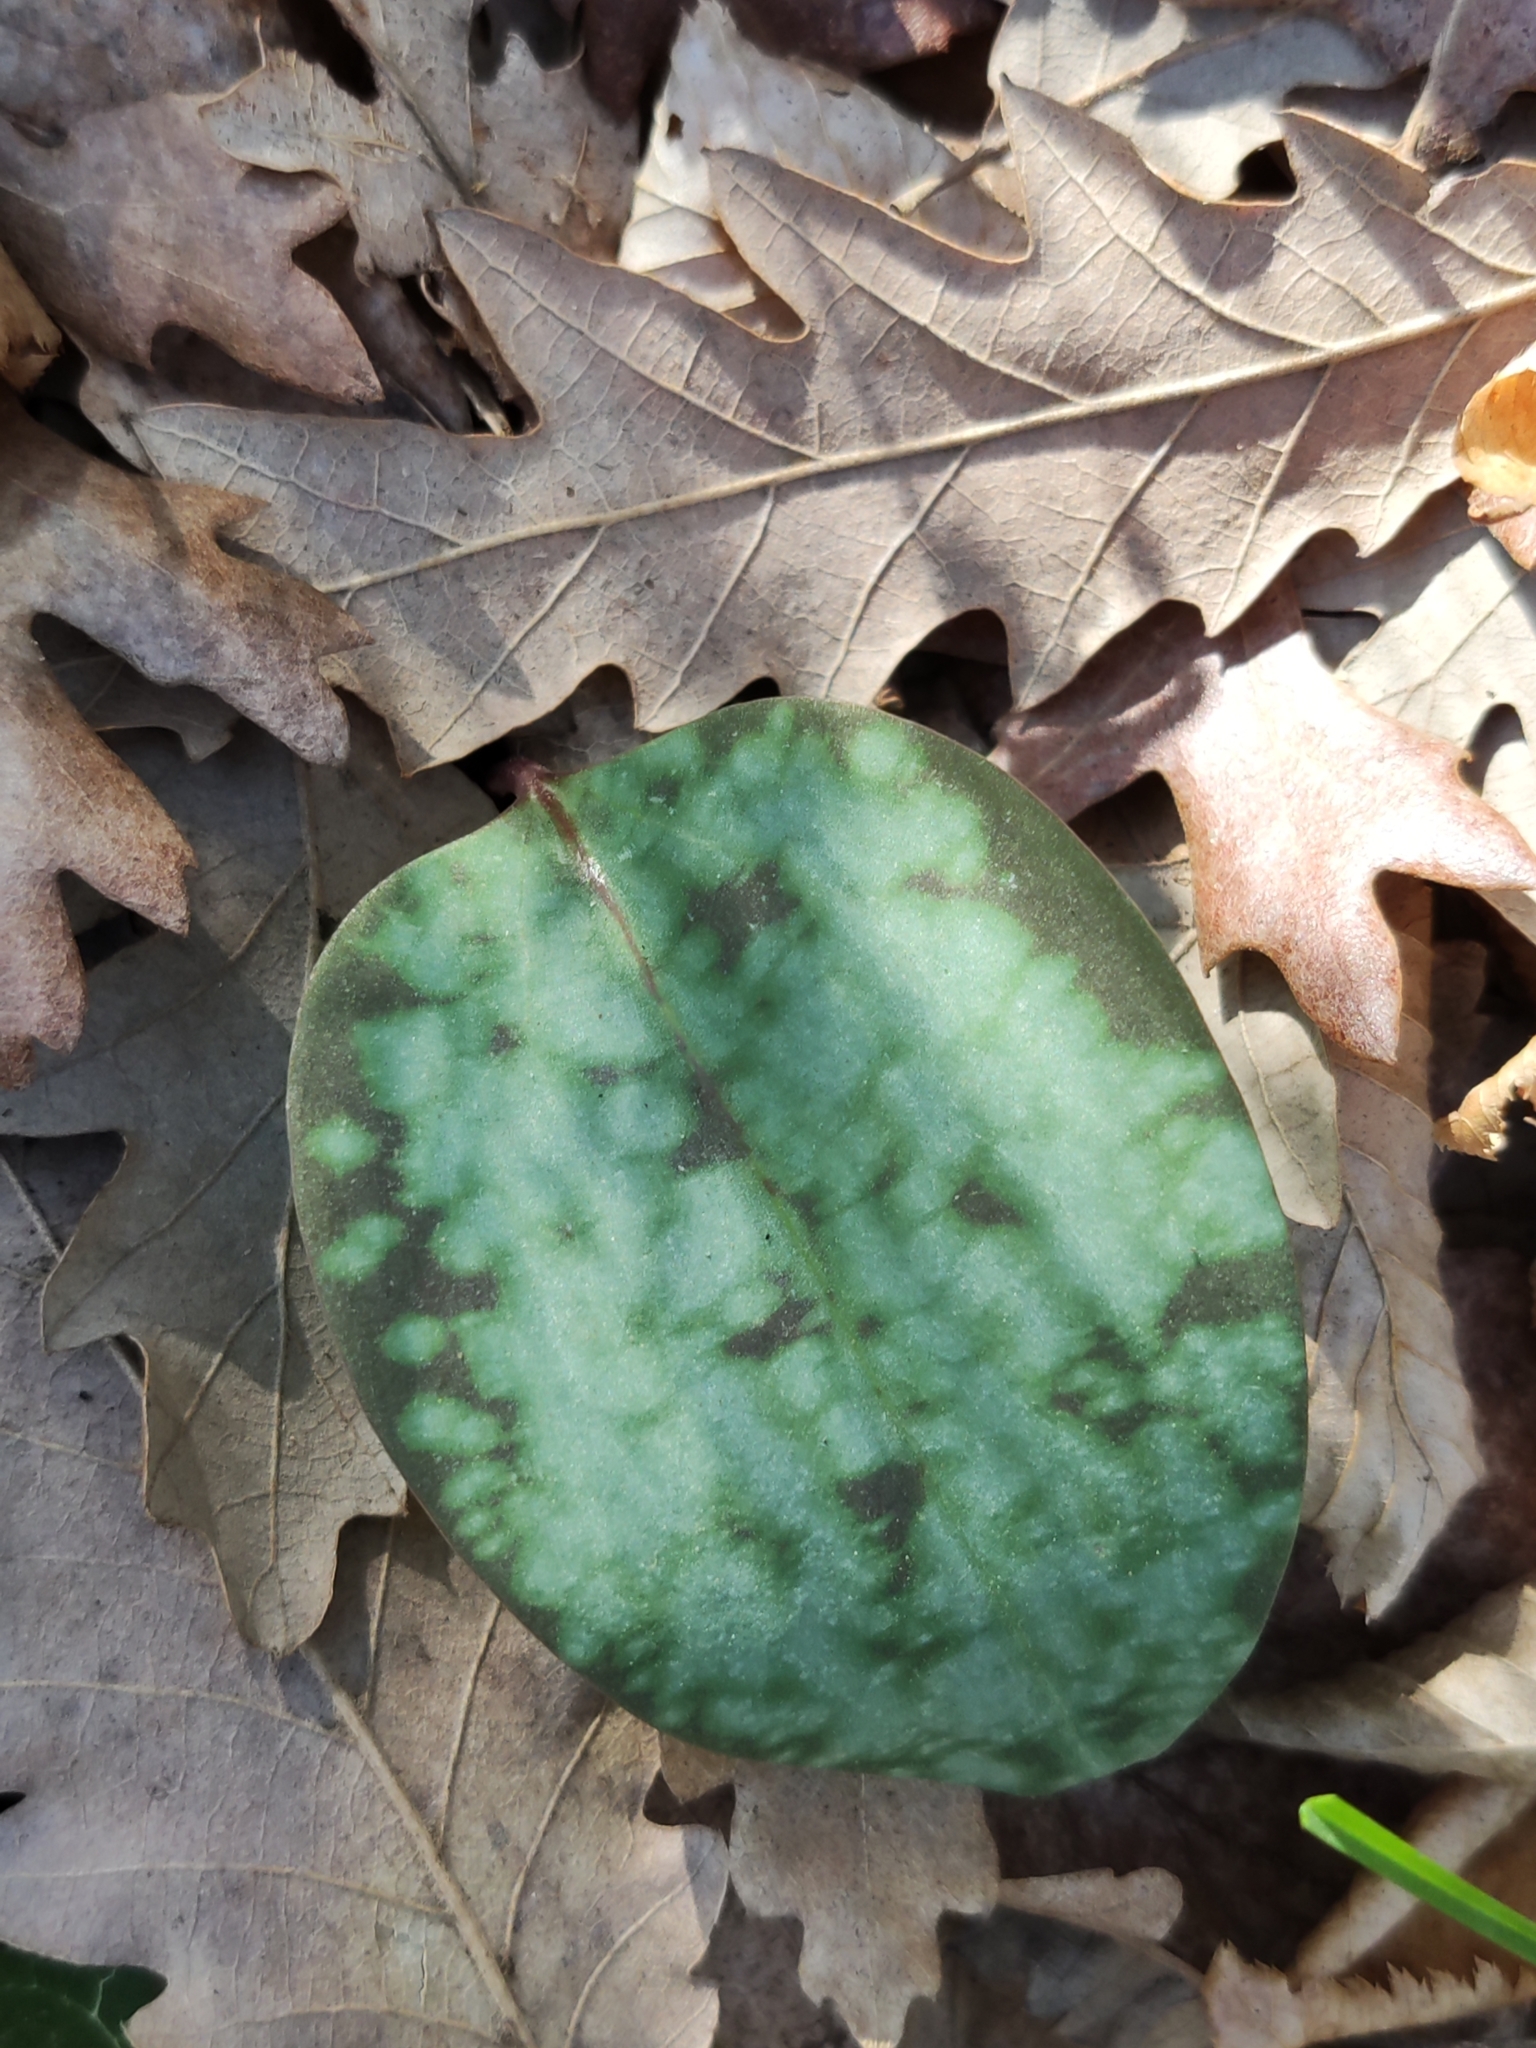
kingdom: Plantae
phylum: Tracheophyta
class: Liliopsida
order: Liliales
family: Liliaceae
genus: Erythronium
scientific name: Erythronium dens-canis
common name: Dog's-tooth-violet
